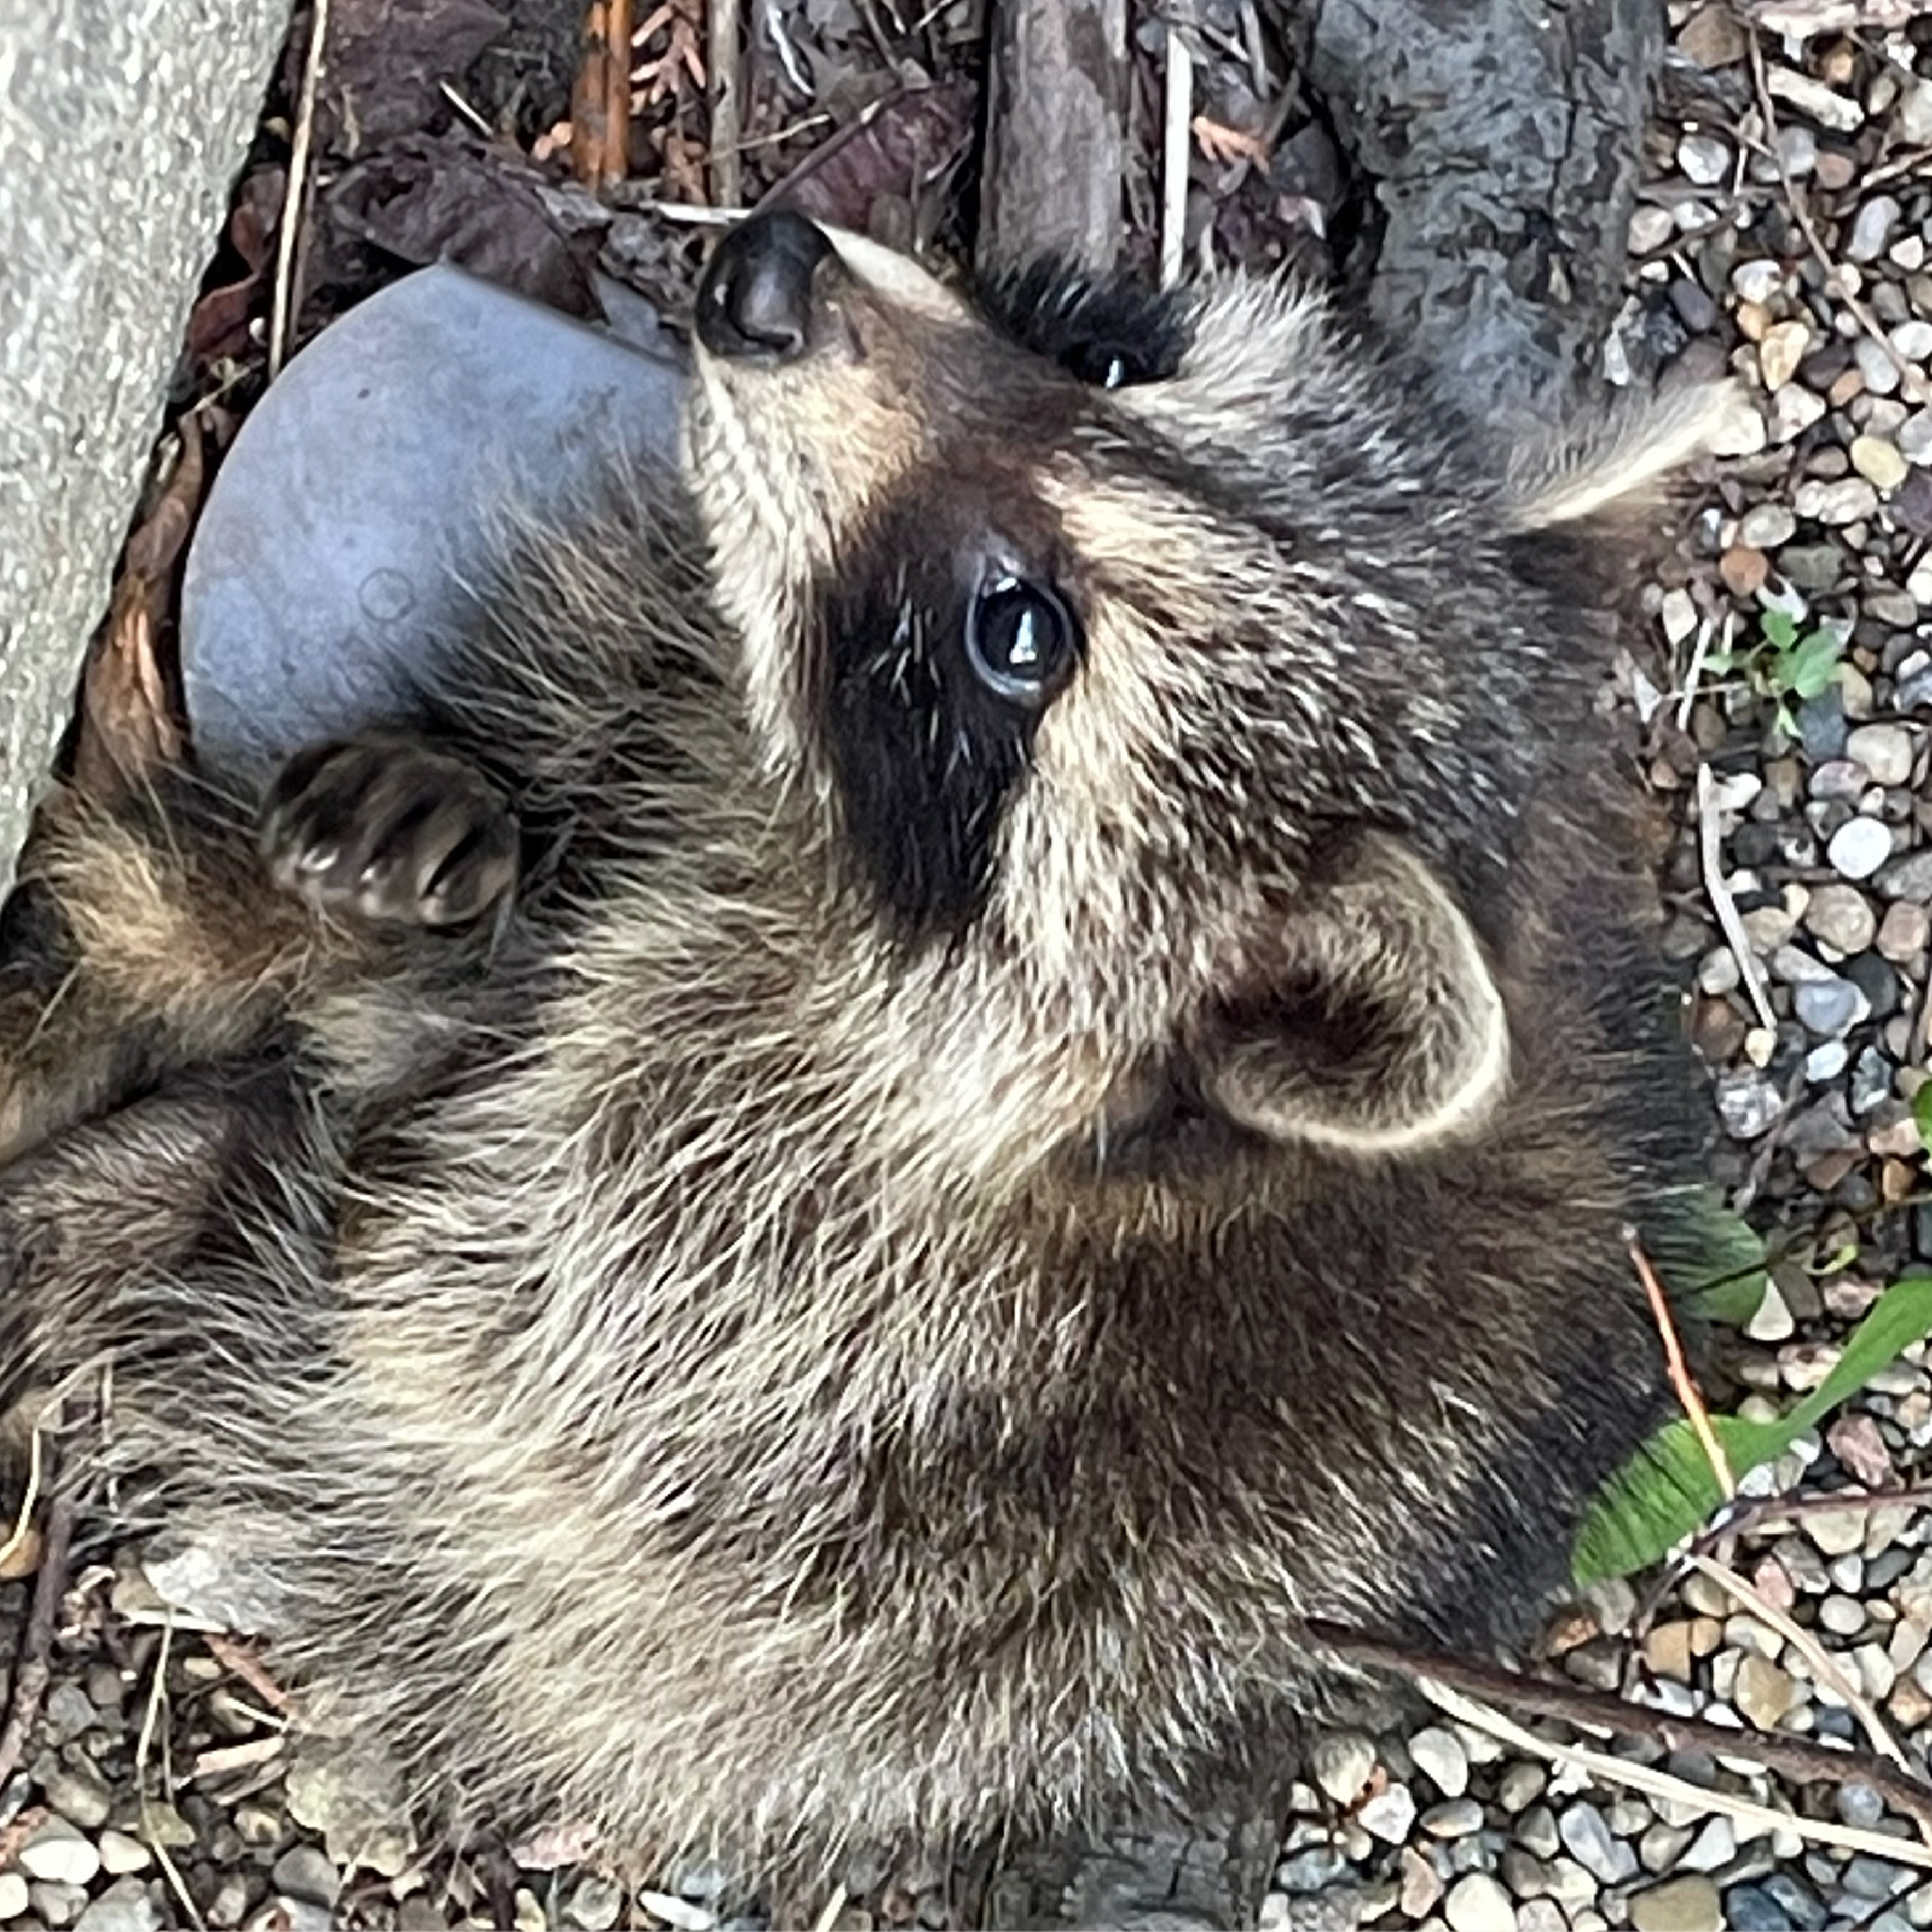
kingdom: Animalia
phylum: Chordata
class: Mammalia
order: Carnivora
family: Procyonidae
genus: Procyon
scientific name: Procyon lotor
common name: Raccoon
